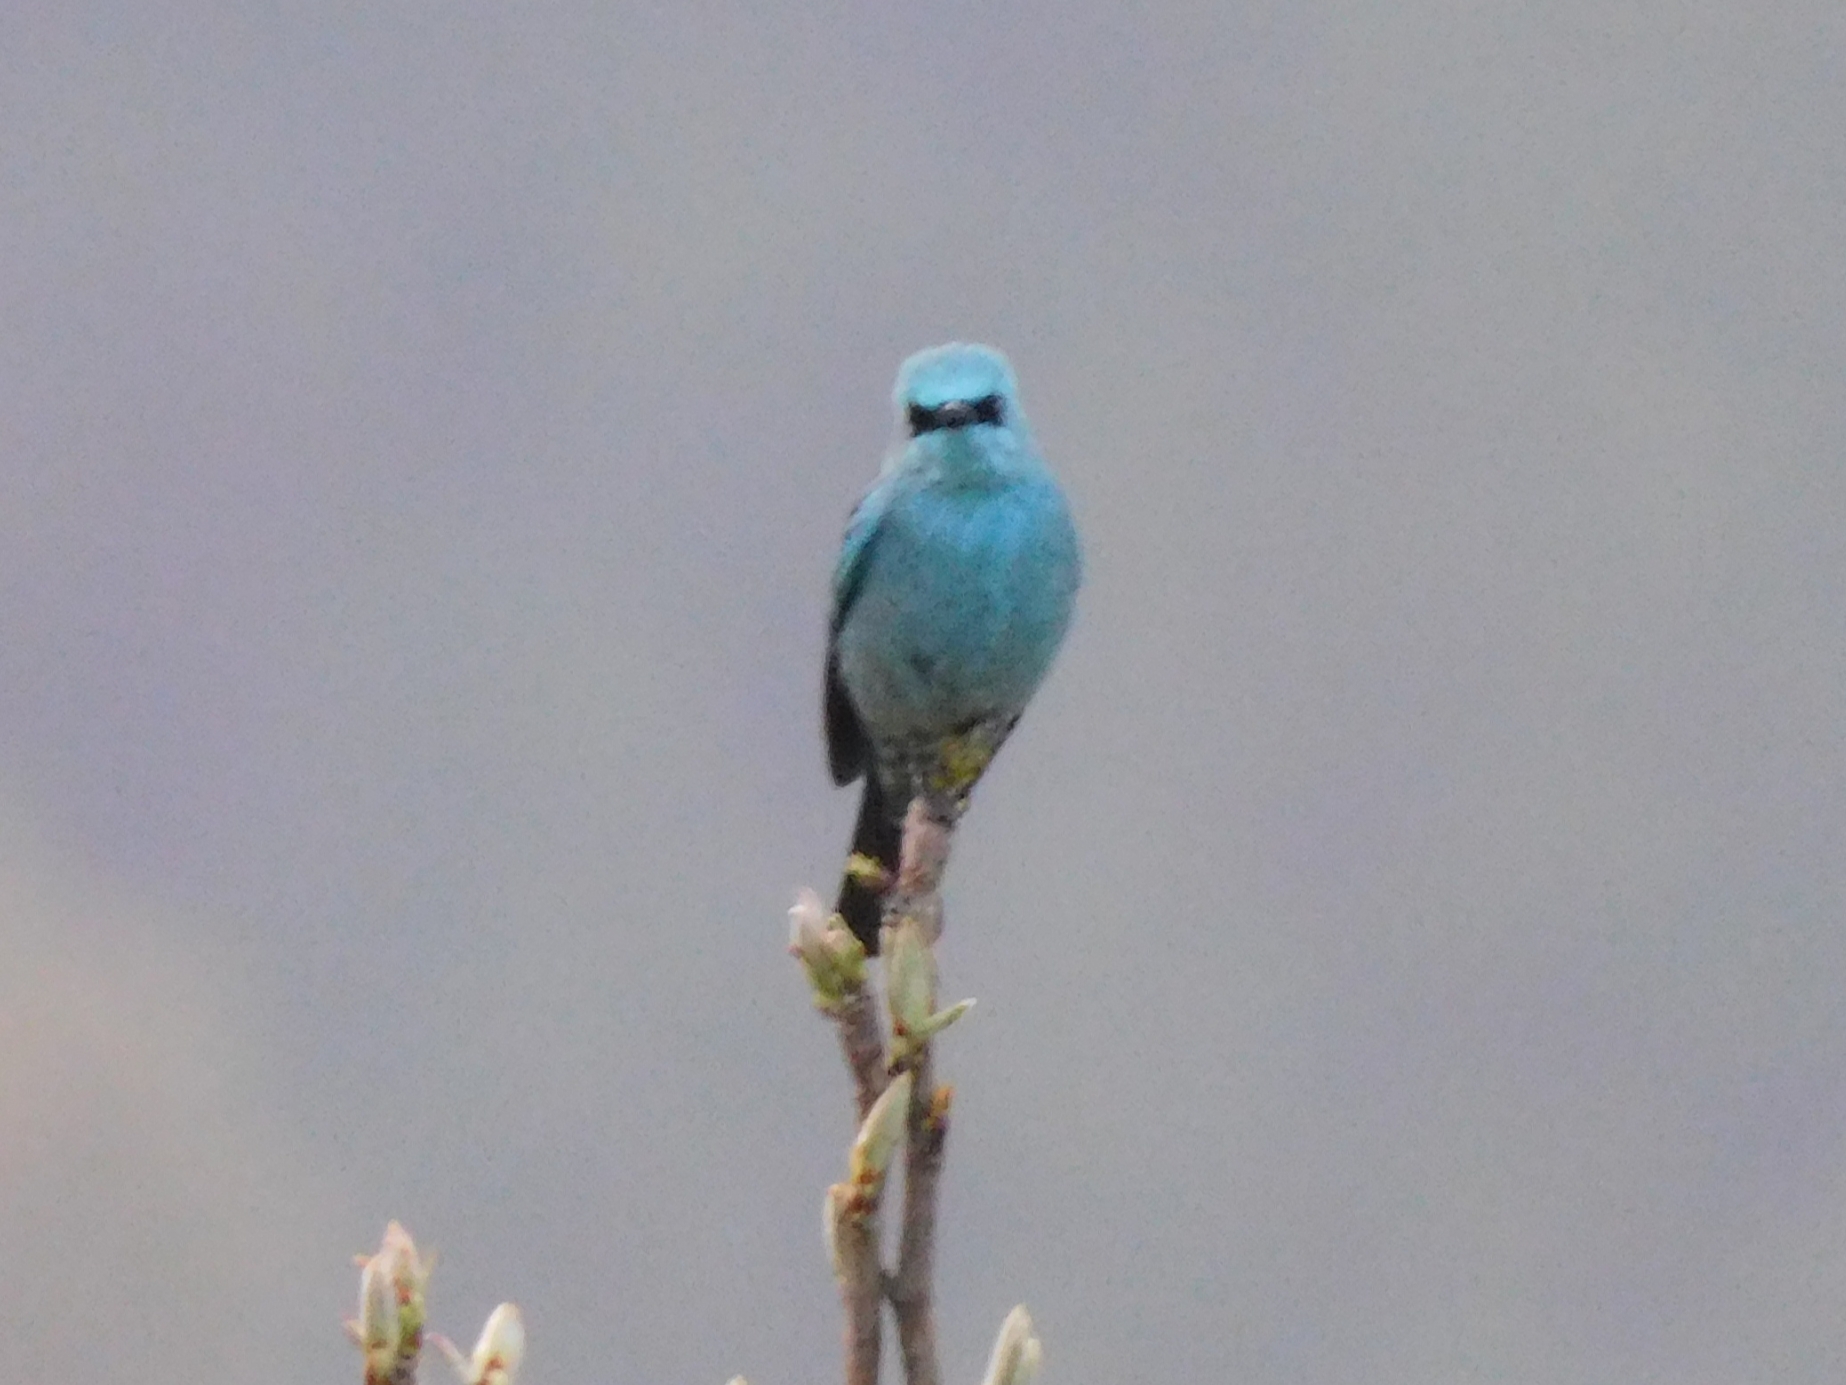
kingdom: Animalia
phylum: Chordata
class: Aves
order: Passeriformes
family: Muscicapidae
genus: Eumyias
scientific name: Eumyias thalassinus
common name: Verditer flycatcher
